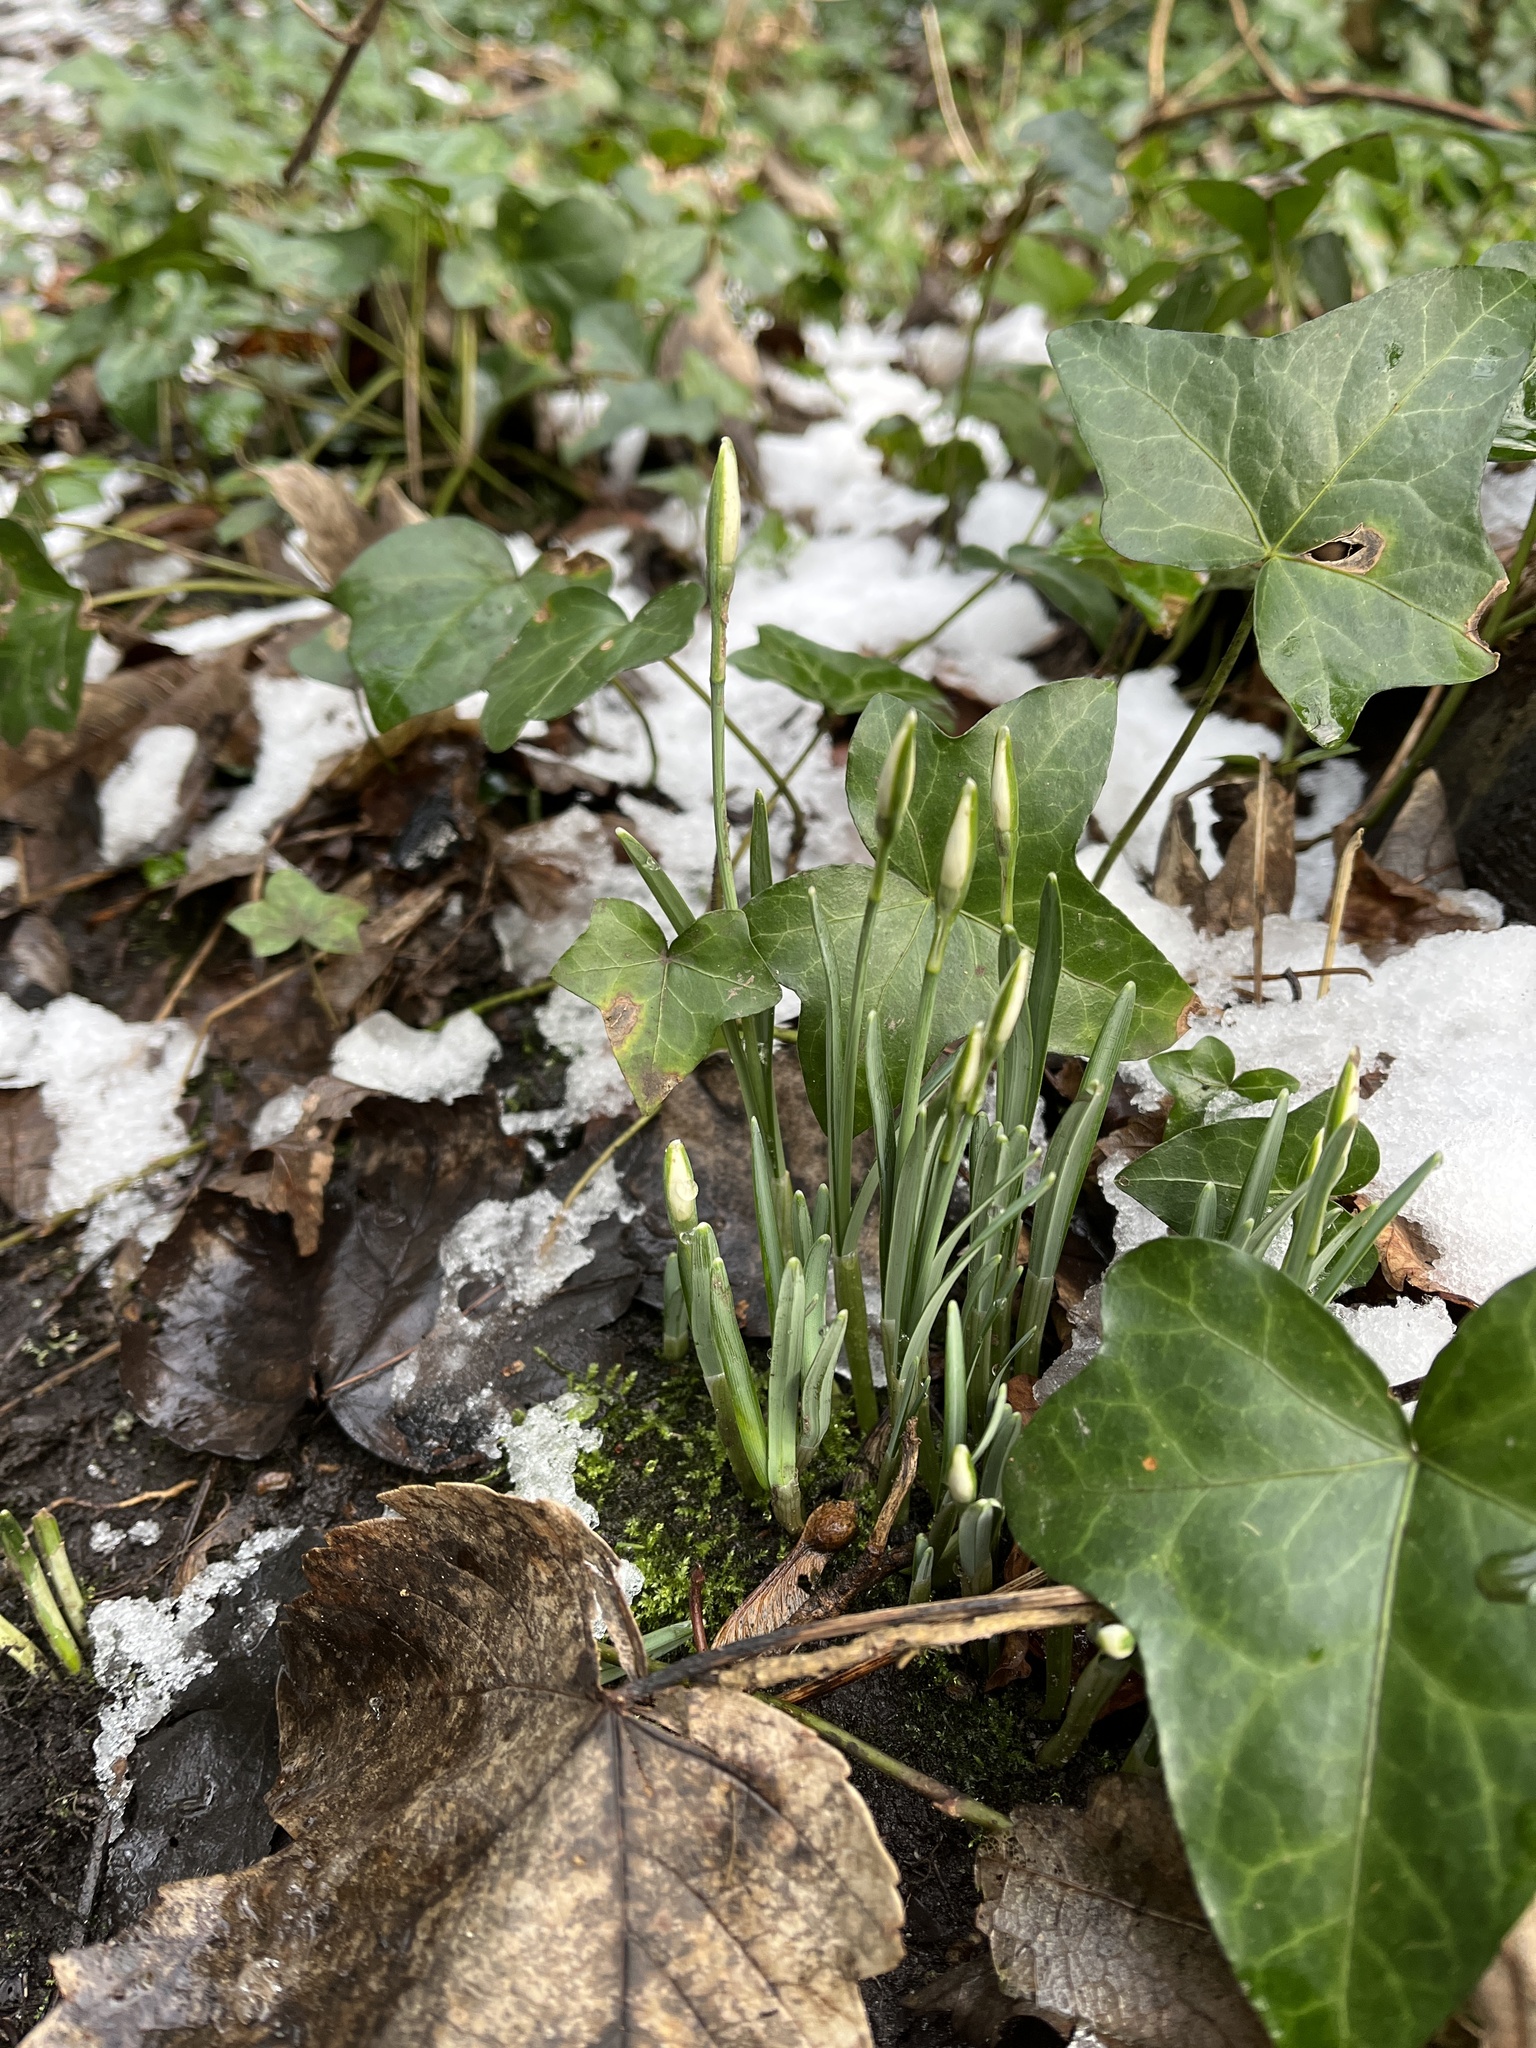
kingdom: Plantae
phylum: Tracheophyta
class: Liliopsida
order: Asparagales
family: Amaryllidaceae
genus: Galanthus
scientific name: Galanthus nivalis
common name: Snowdrop
